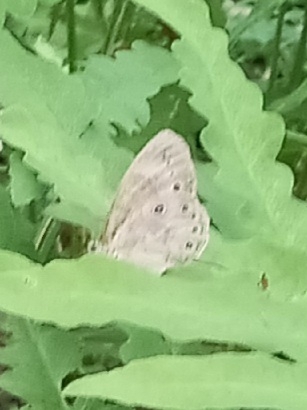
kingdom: Animalia
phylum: Arthropoda
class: Insecta
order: Lepidoptera
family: Nymphalidae
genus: Lethe
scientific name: Lethe eurydice
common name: Eyed brown
